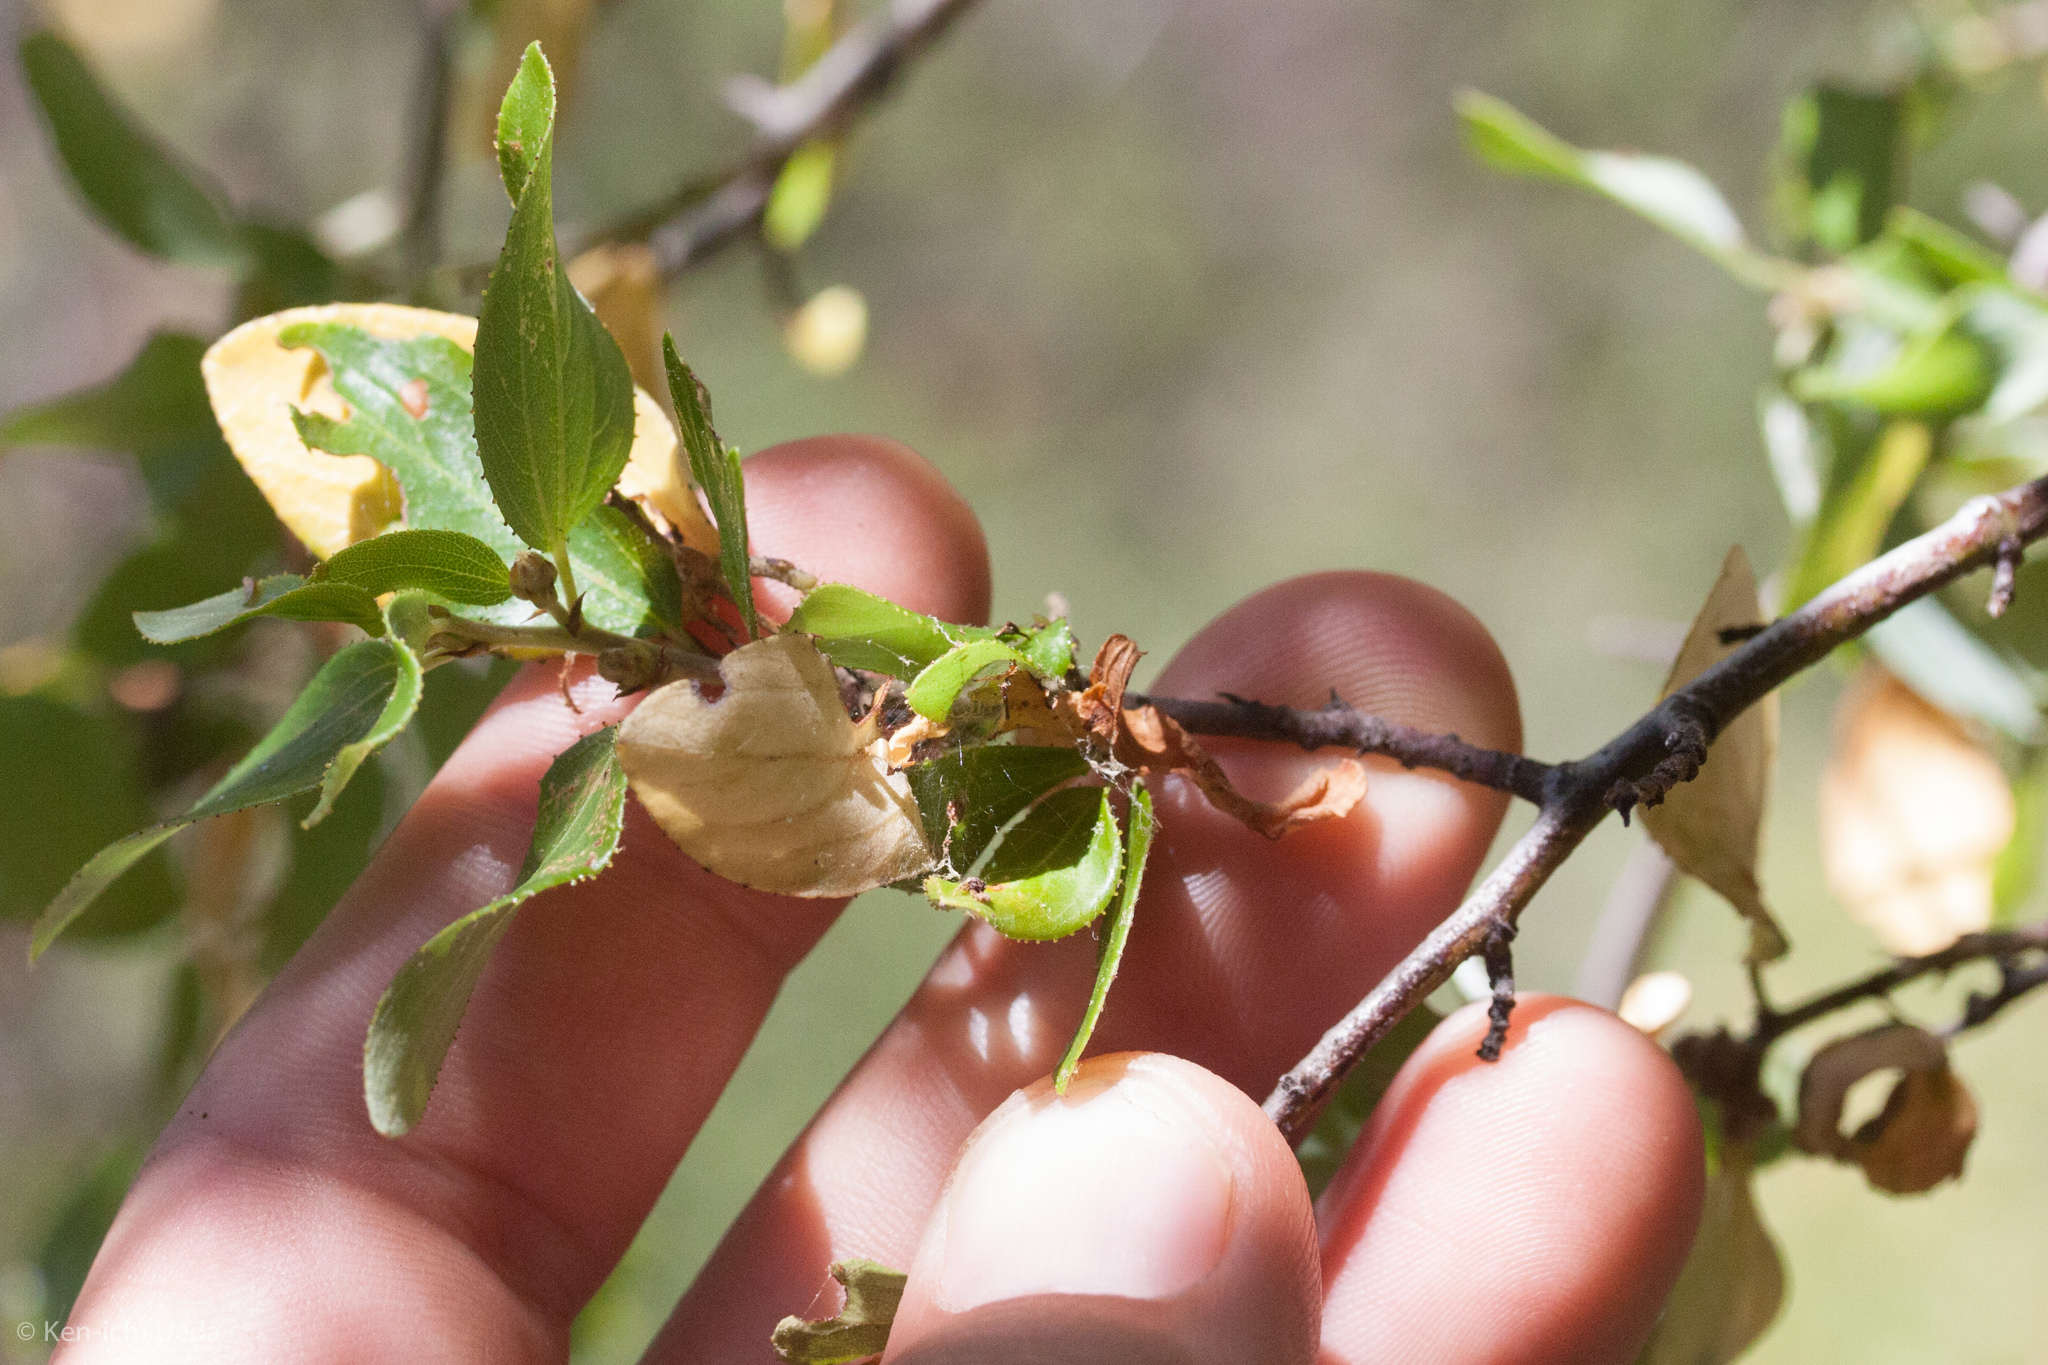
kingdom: Plantae
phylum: Tracheophyta
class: Magnoliopsida
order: Rosales
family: Rhamnaceae
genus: Ceanothus
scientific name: Ceanothus oliganthus
